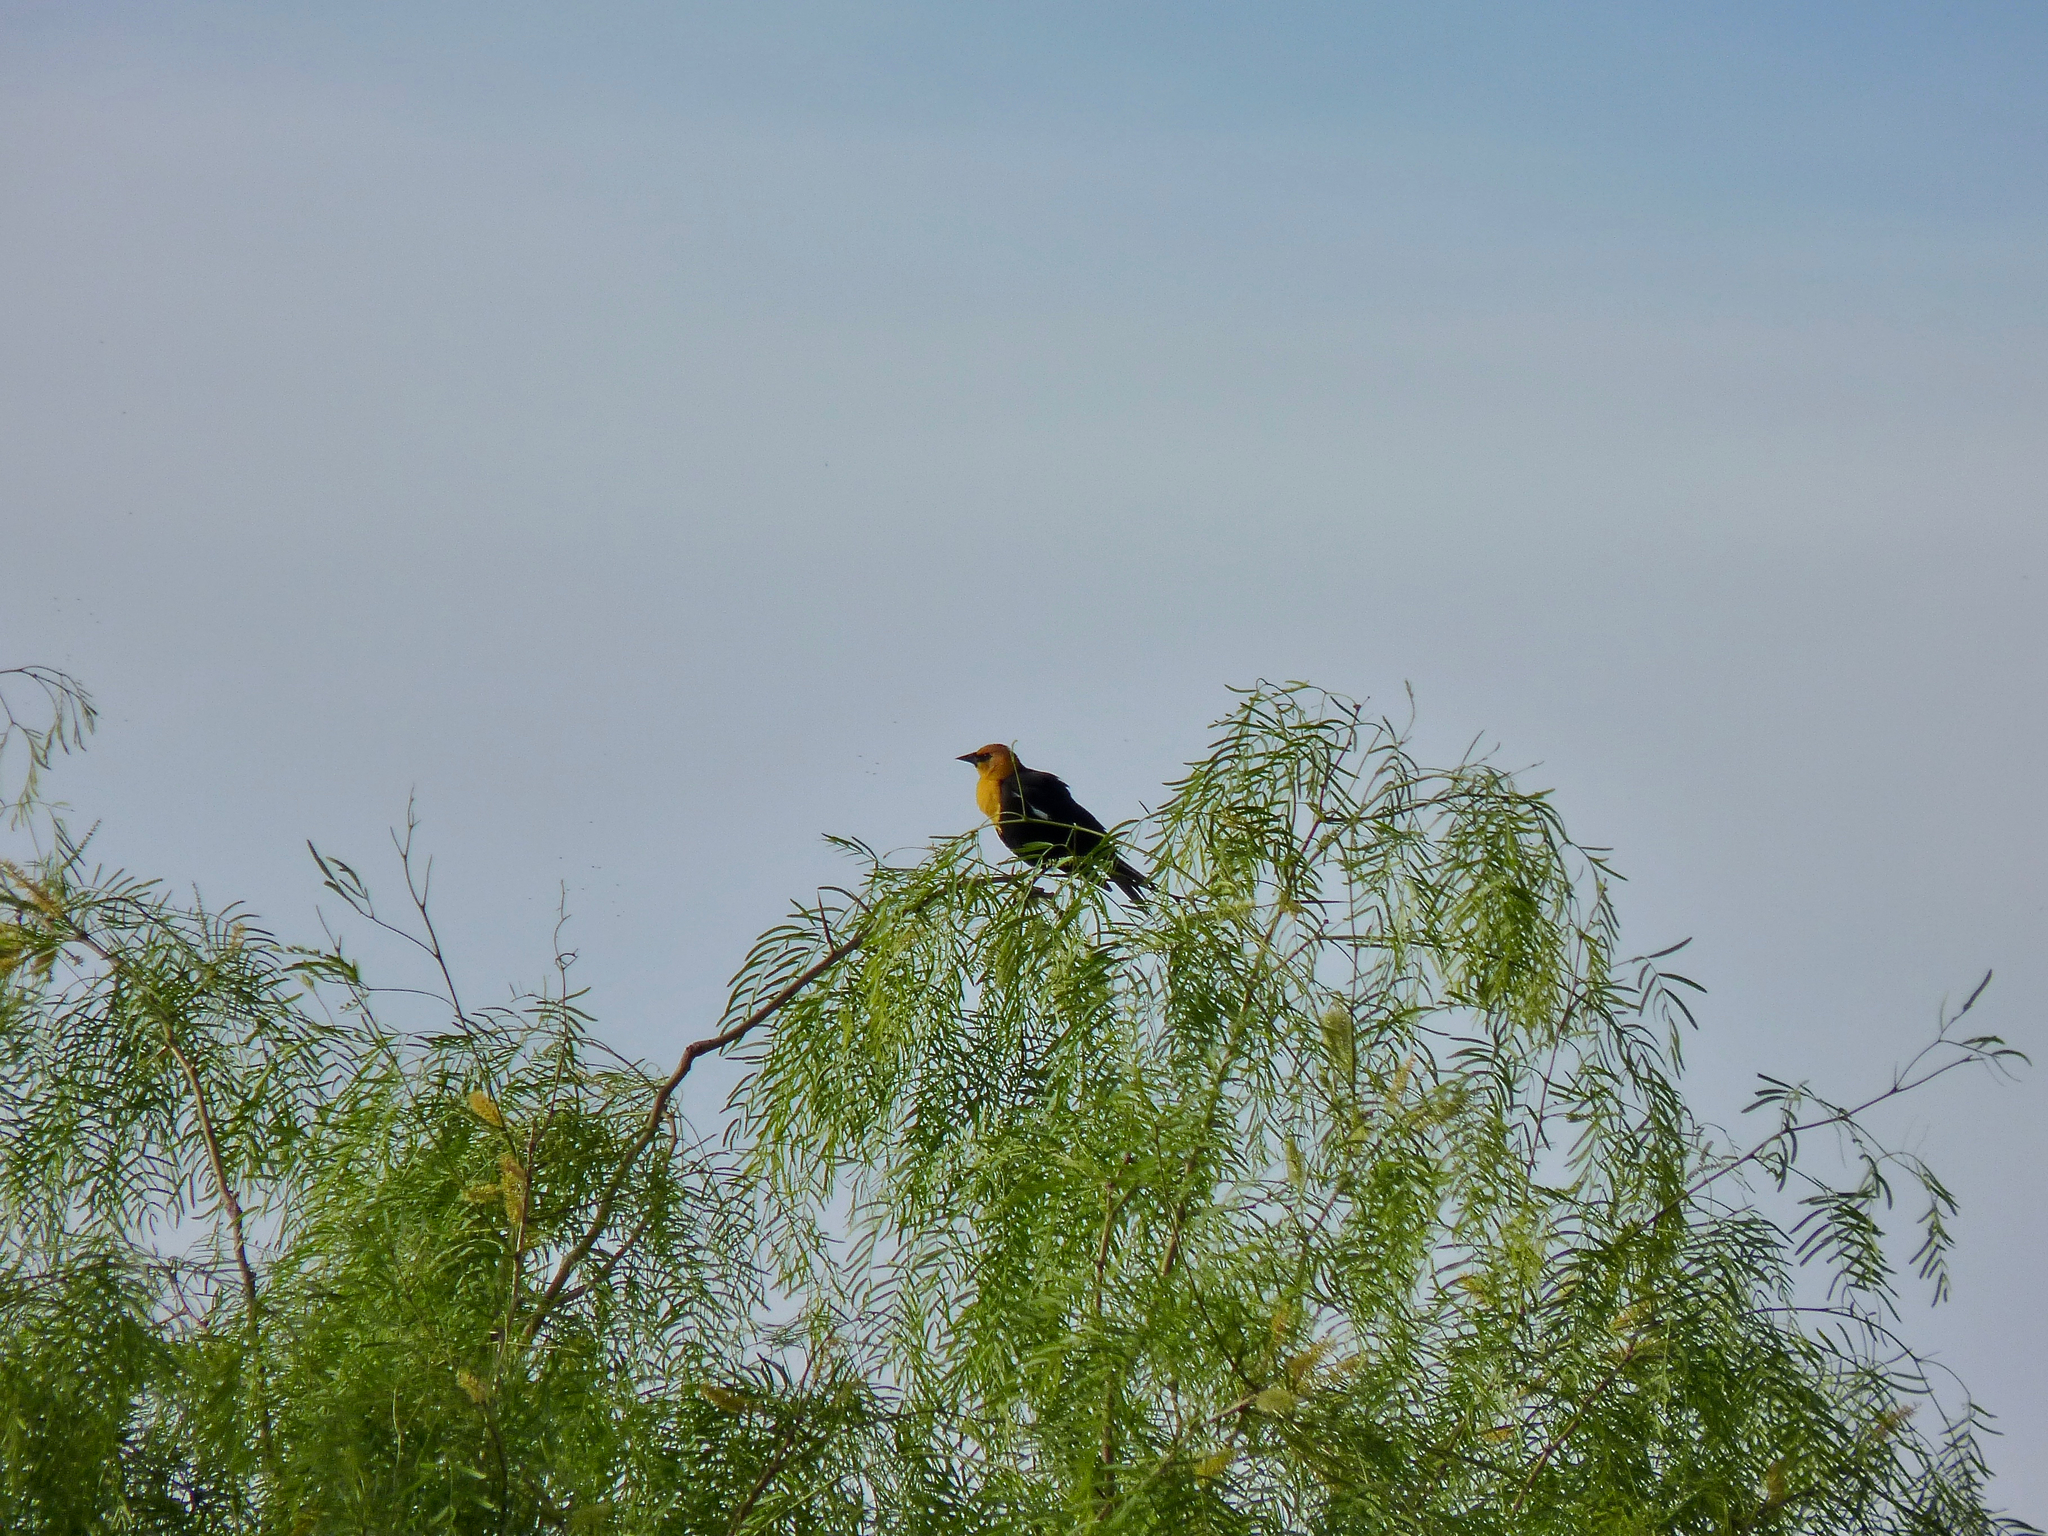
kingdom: Animalia
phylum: Chordata
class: Aves
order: Passeriformes
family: Icteridae
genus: Xanthocephalus
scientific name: Xanthocephalus xanthocephalus
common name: Yellow-headed blackbird
